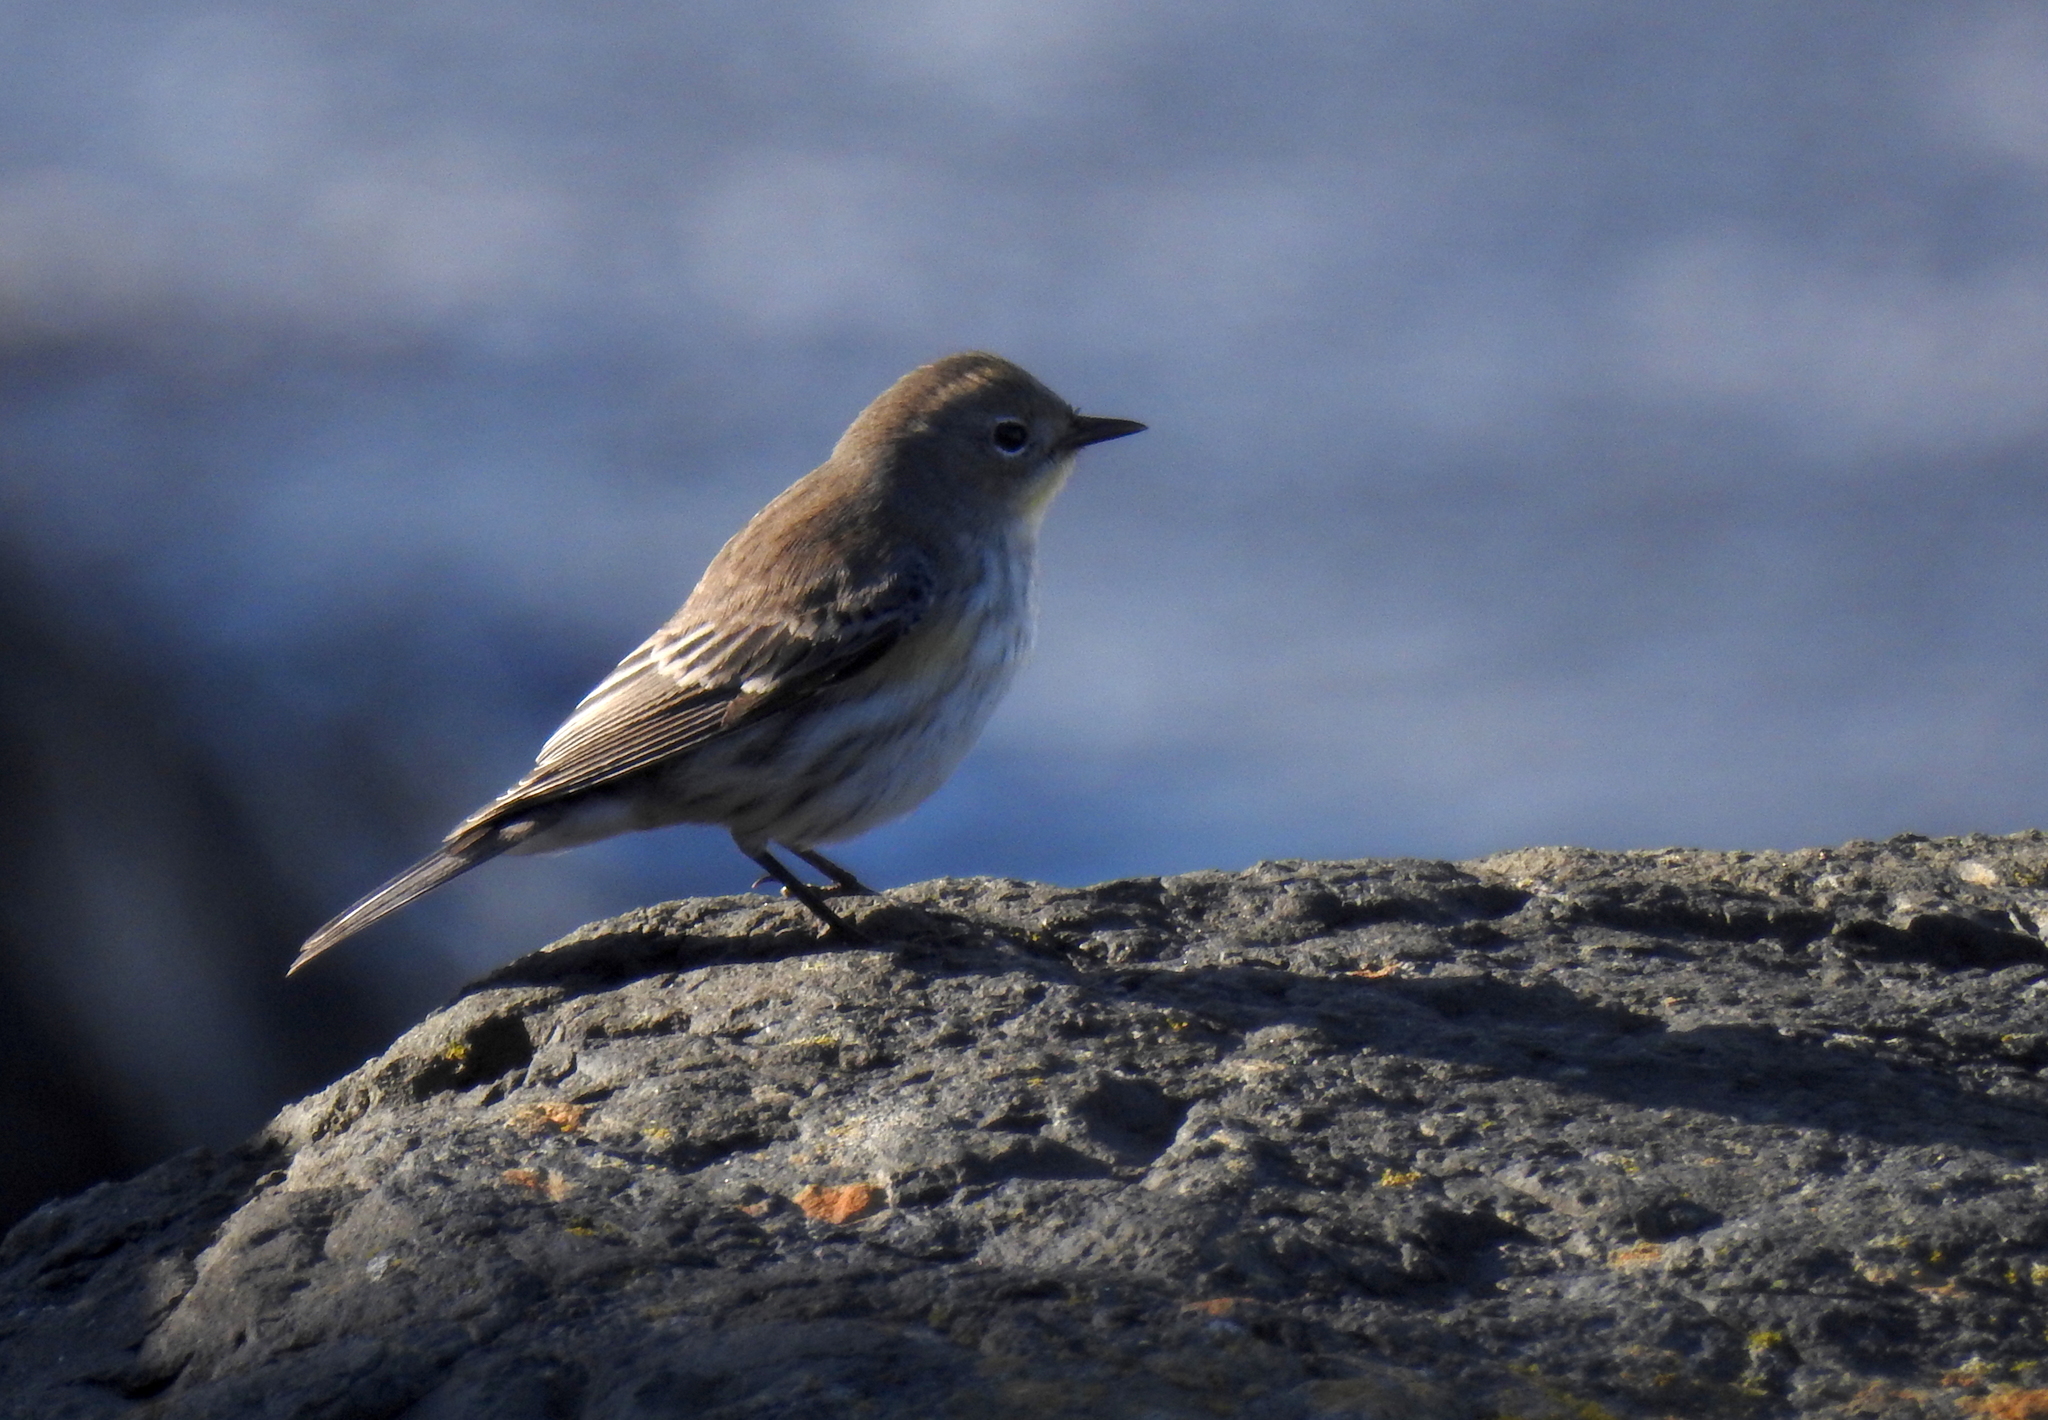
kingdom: Animalia
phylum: Chordata
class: Aves
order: Passeriformes
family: Parulidae
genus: Setophaga
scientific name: Setophaga auduboni
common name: Audubon's warbler
